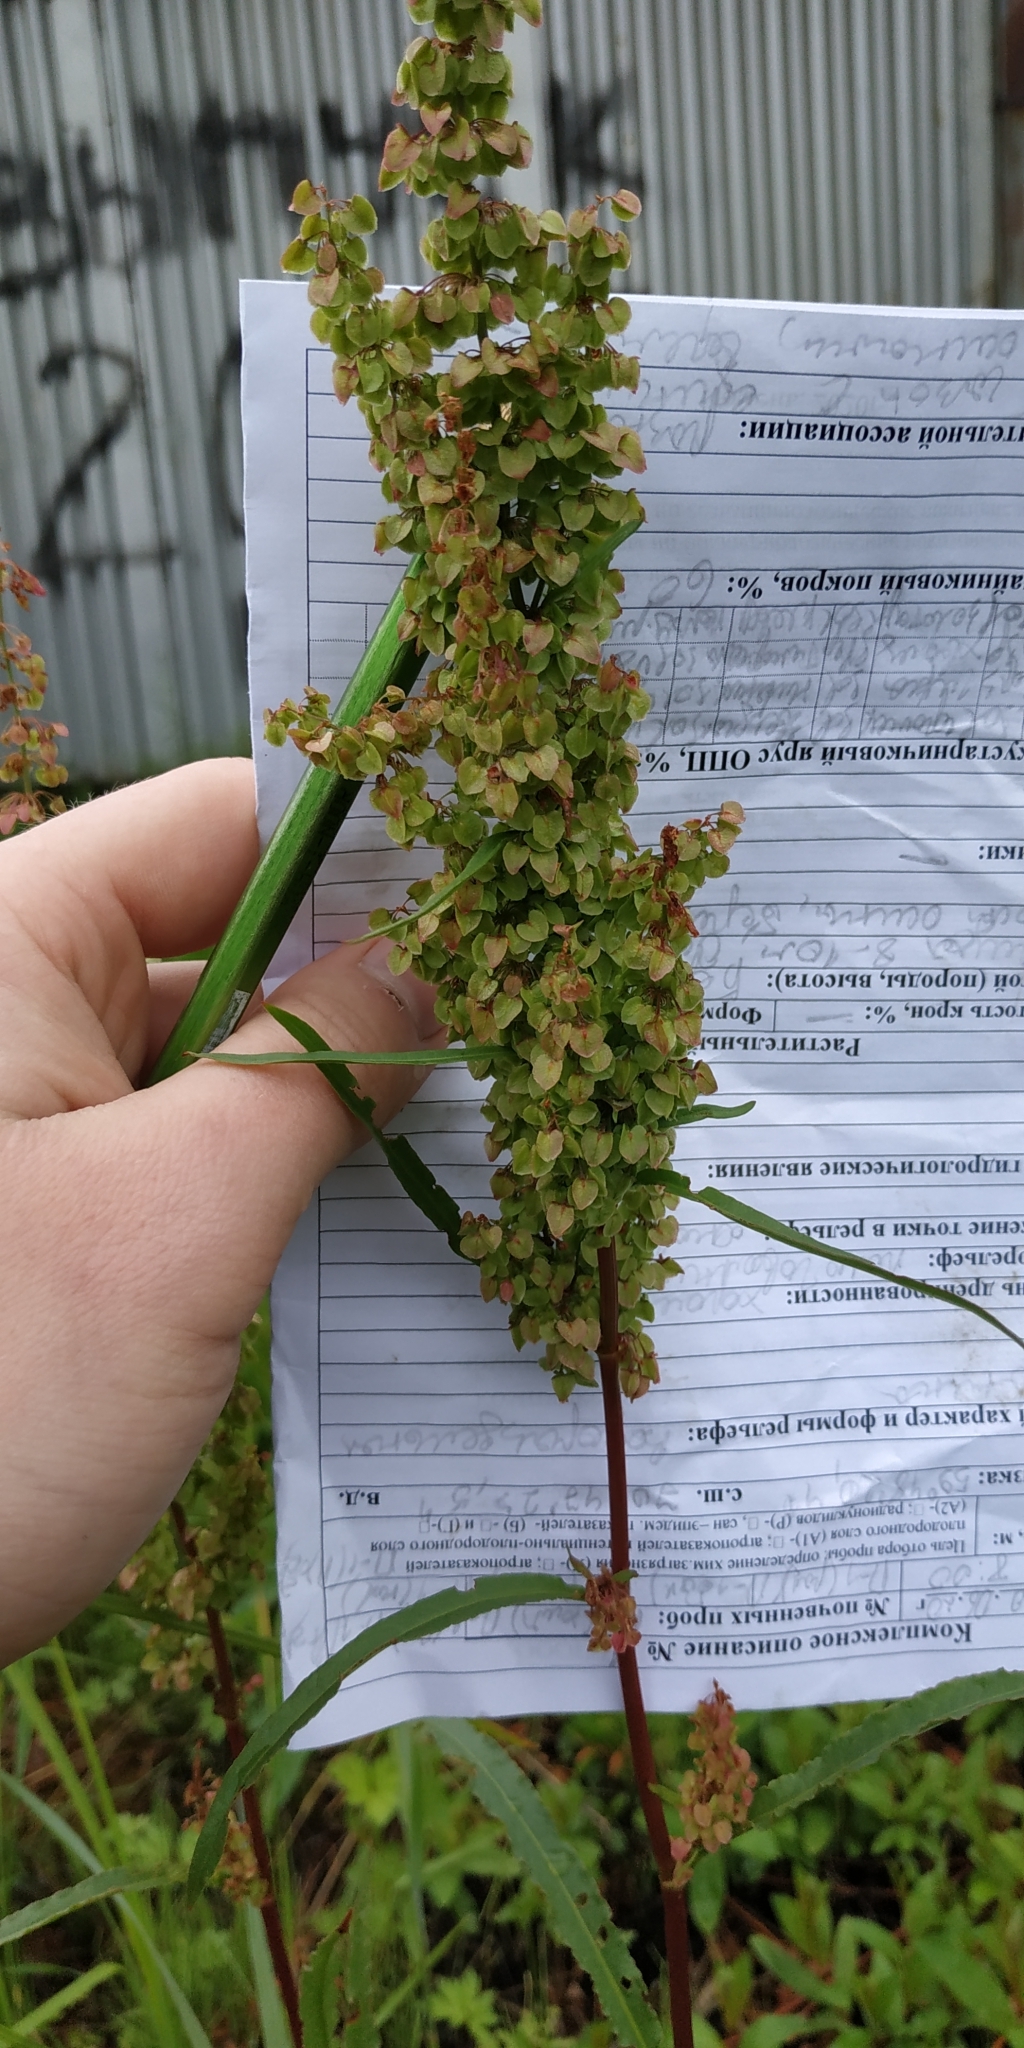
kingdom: Plantae
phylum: Tracheophyta
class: Magnoliopsida
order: Caryophyllales
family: Polygonaceae
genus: Rumex
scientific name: Rumex pseudonatronatus
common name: Field dock
